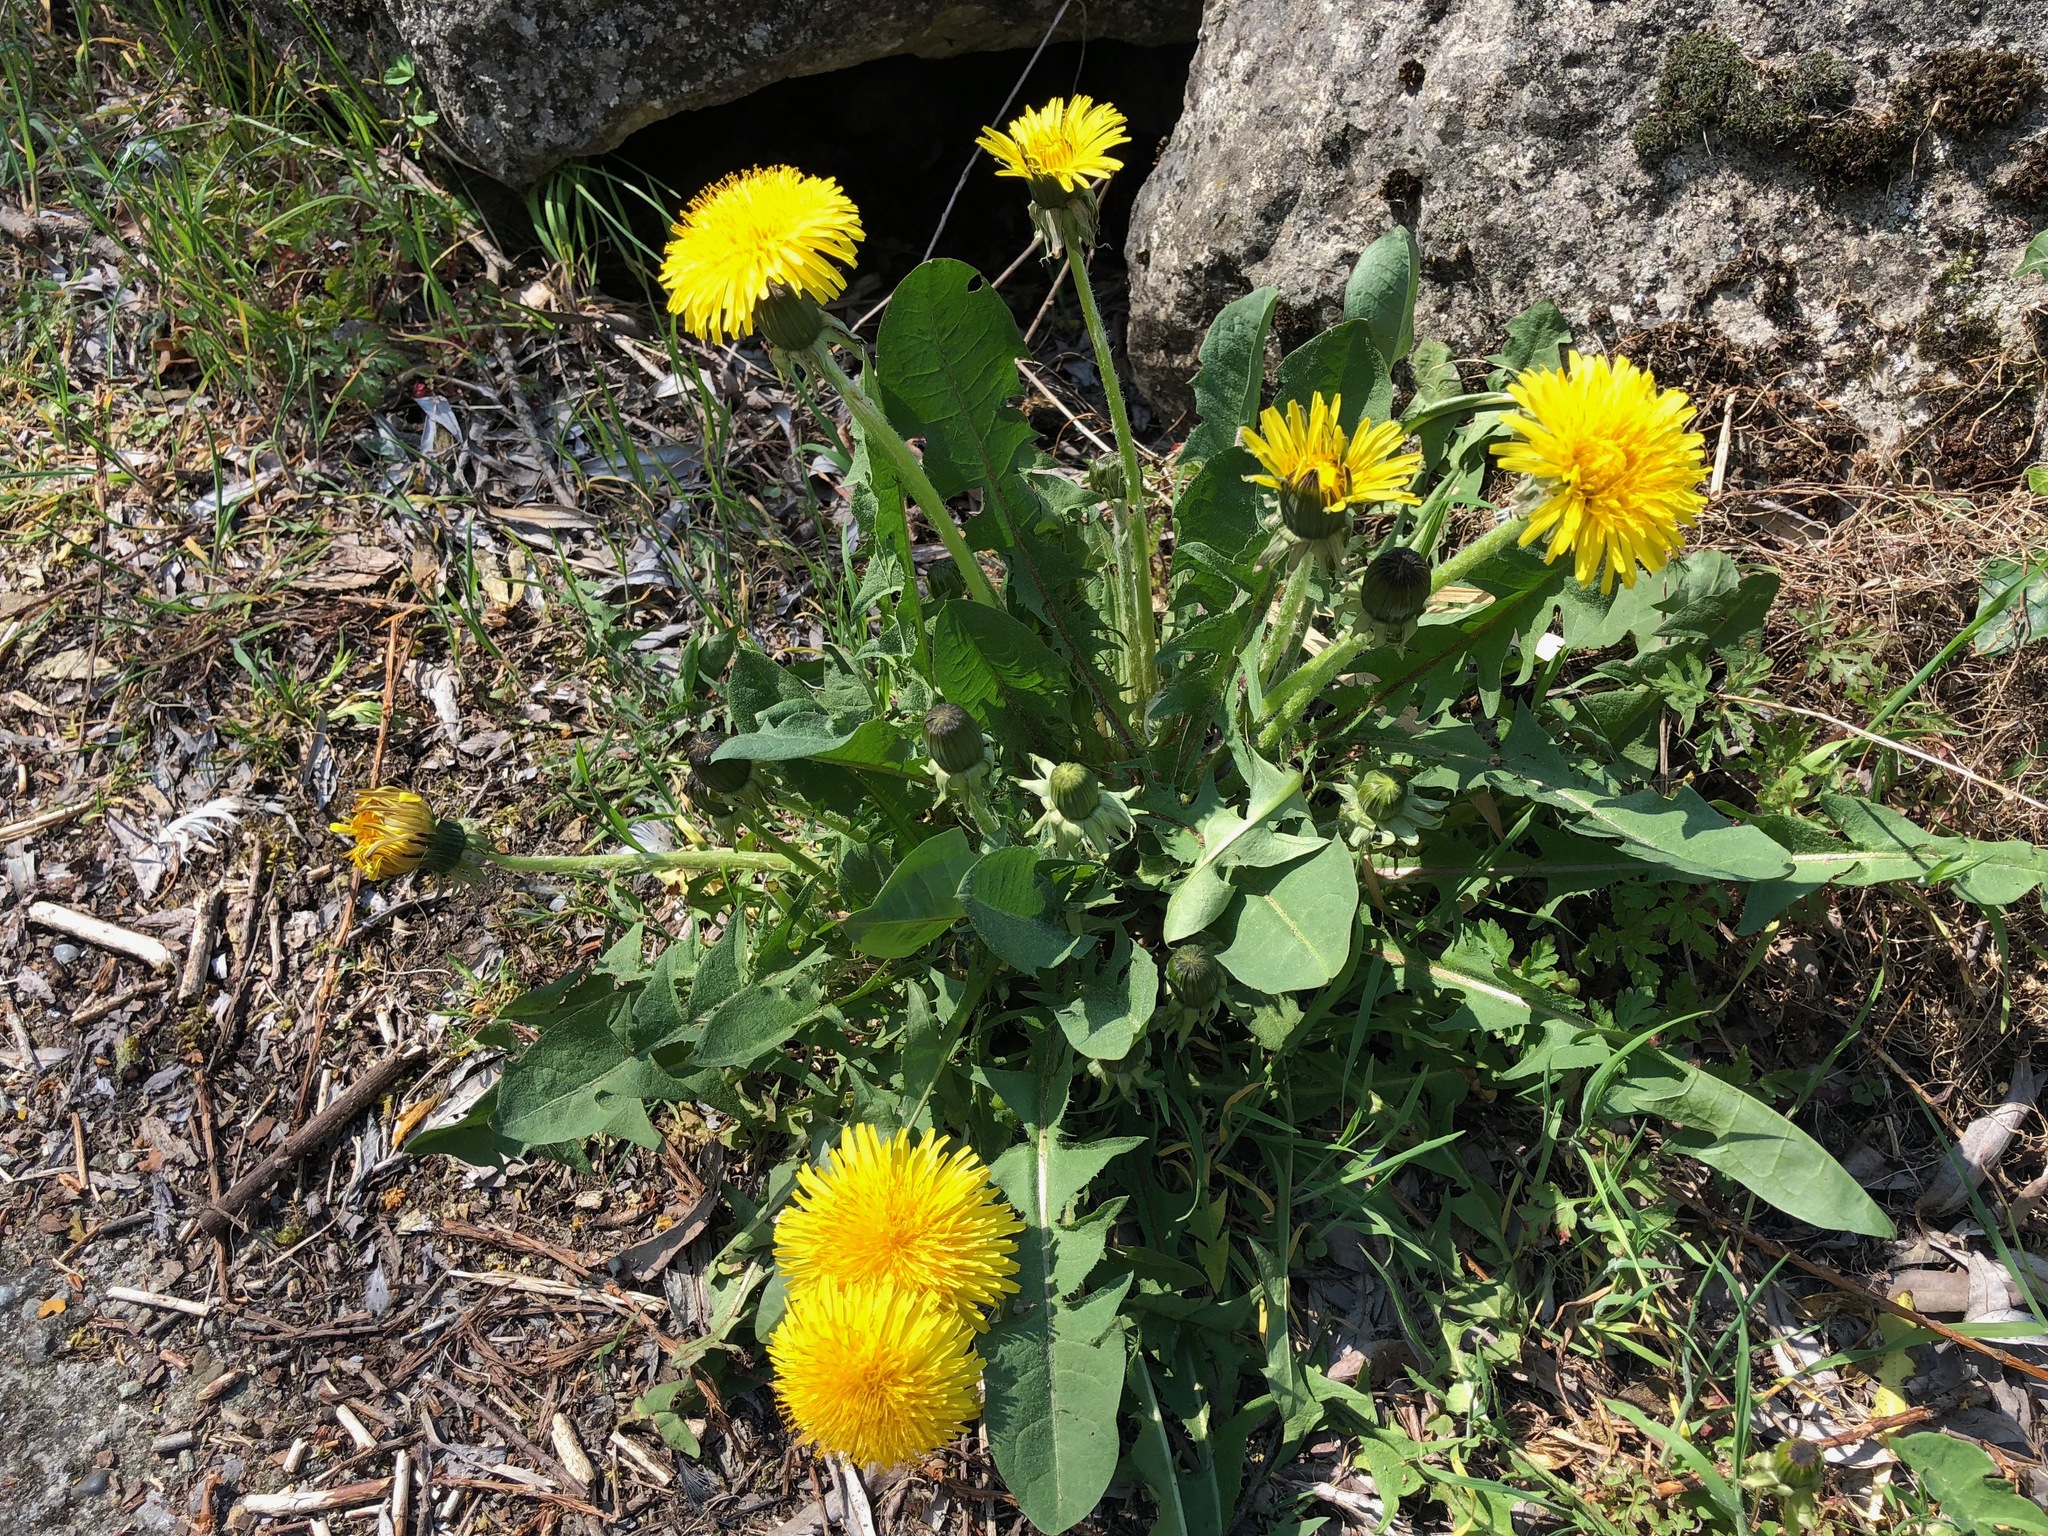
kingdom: Plantae
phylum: Tracheophyta
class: Magnoliopsida
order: Asterales
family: Asteraceae
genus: Taraxacum
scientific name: Taraxacum officinale
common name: Common dandelion
